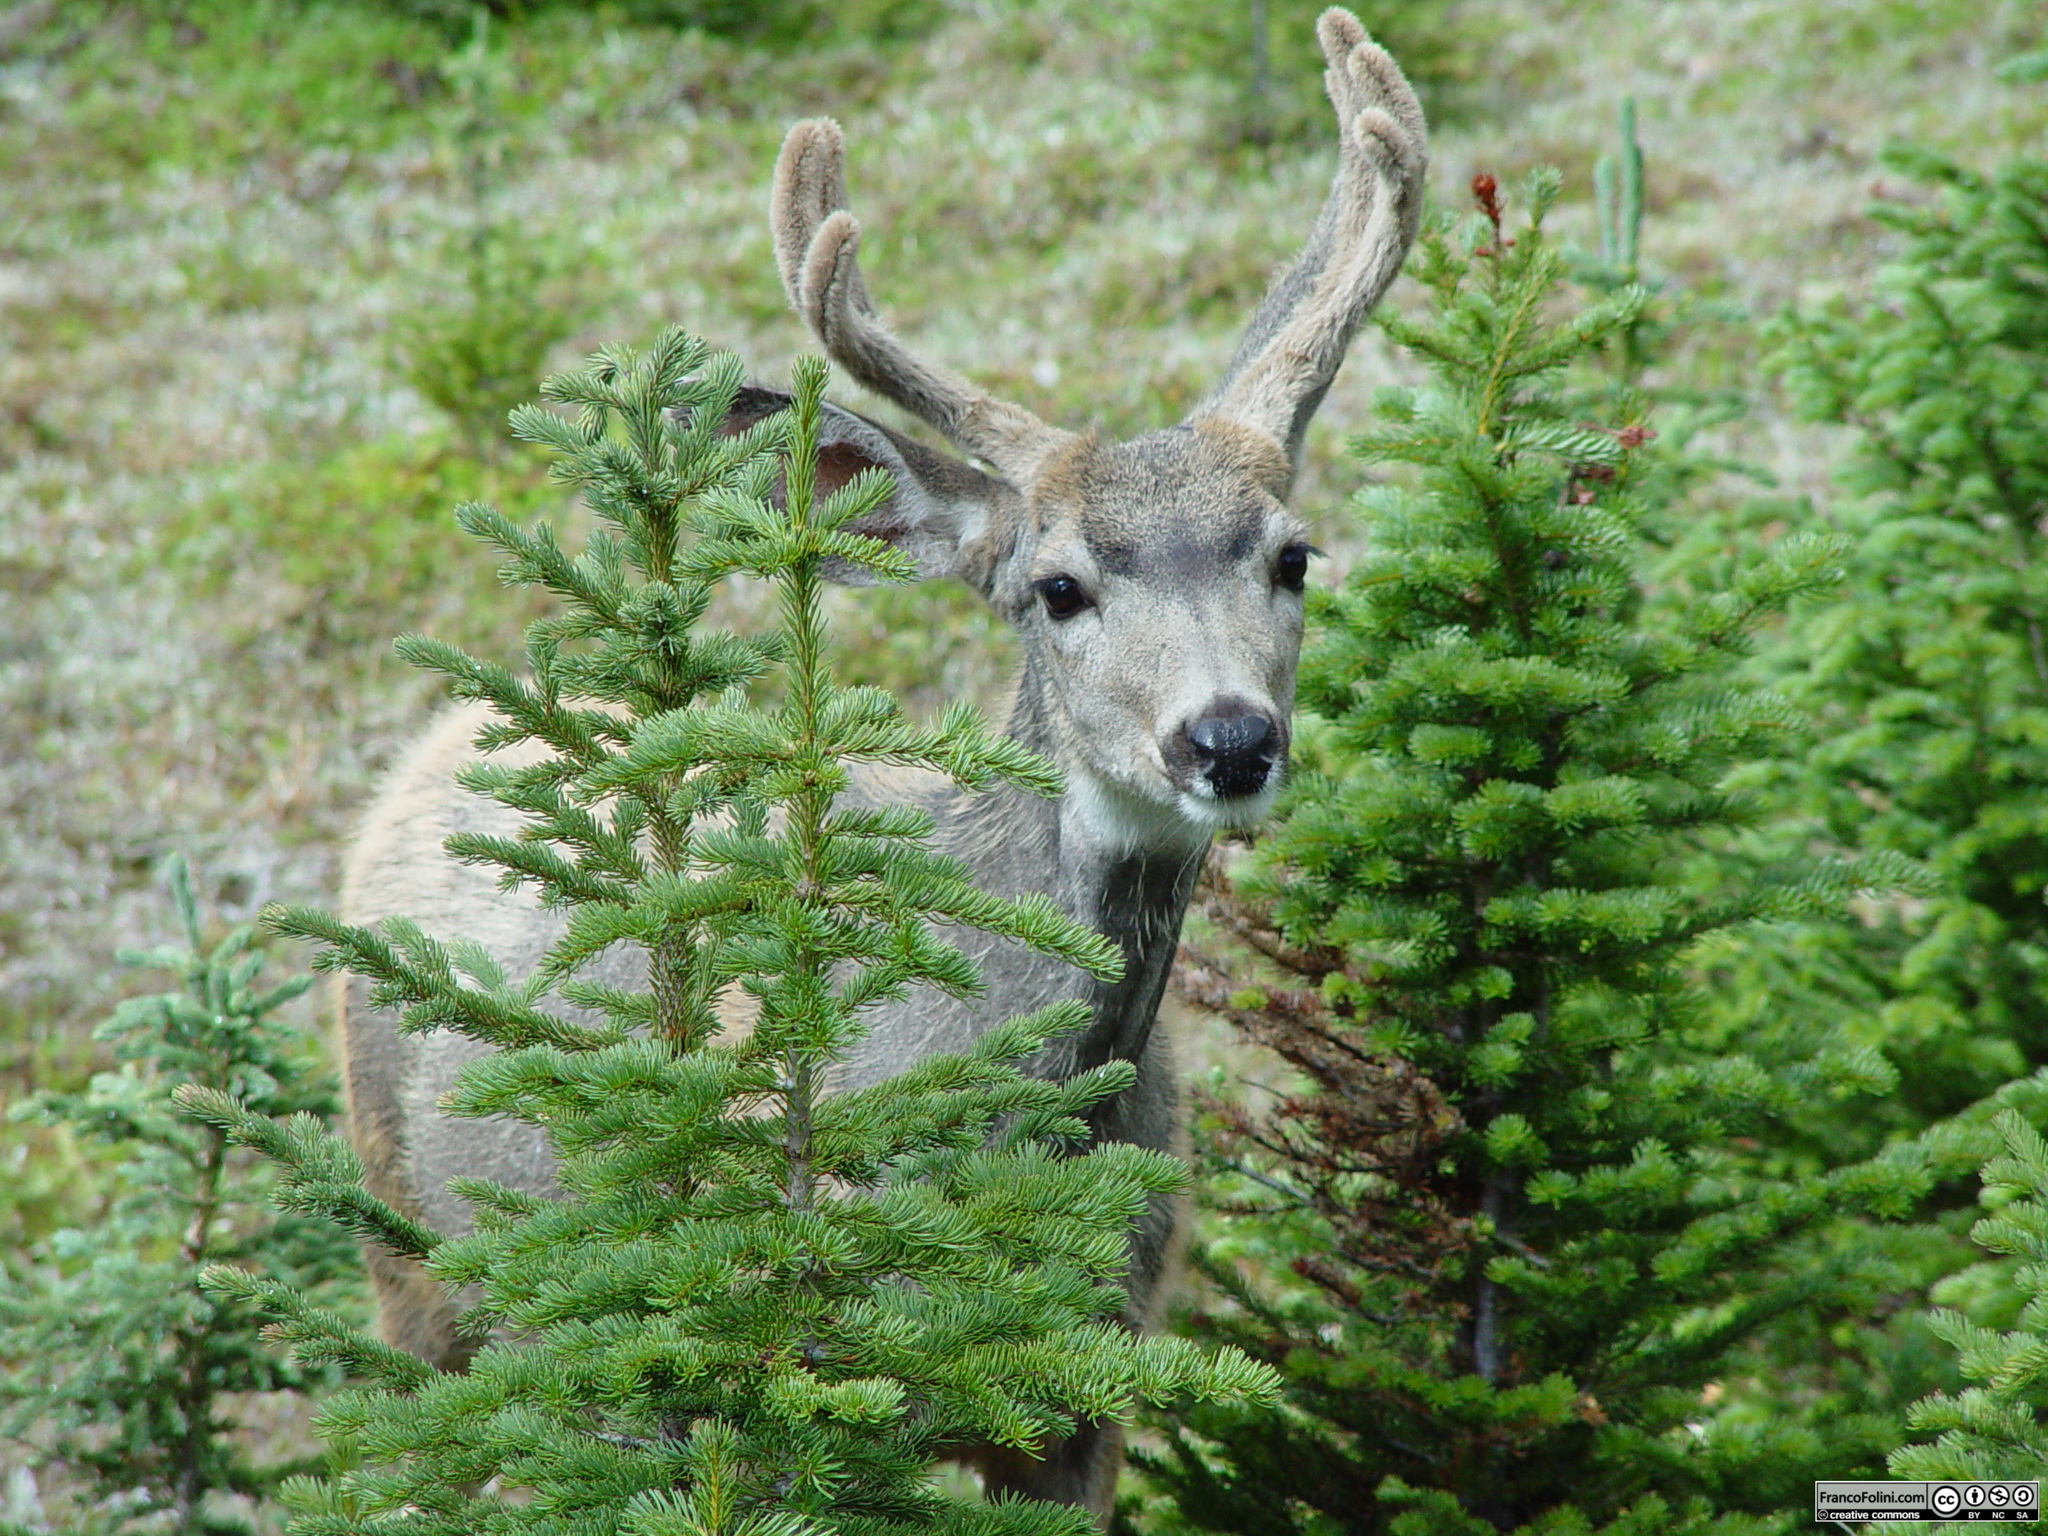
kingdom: Animalia
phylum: Chordata
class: Mammalia
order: Artiodactyla
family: Cervidae
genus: Odocoileus
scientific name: Odocoileus hemionus
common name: Mule deer
